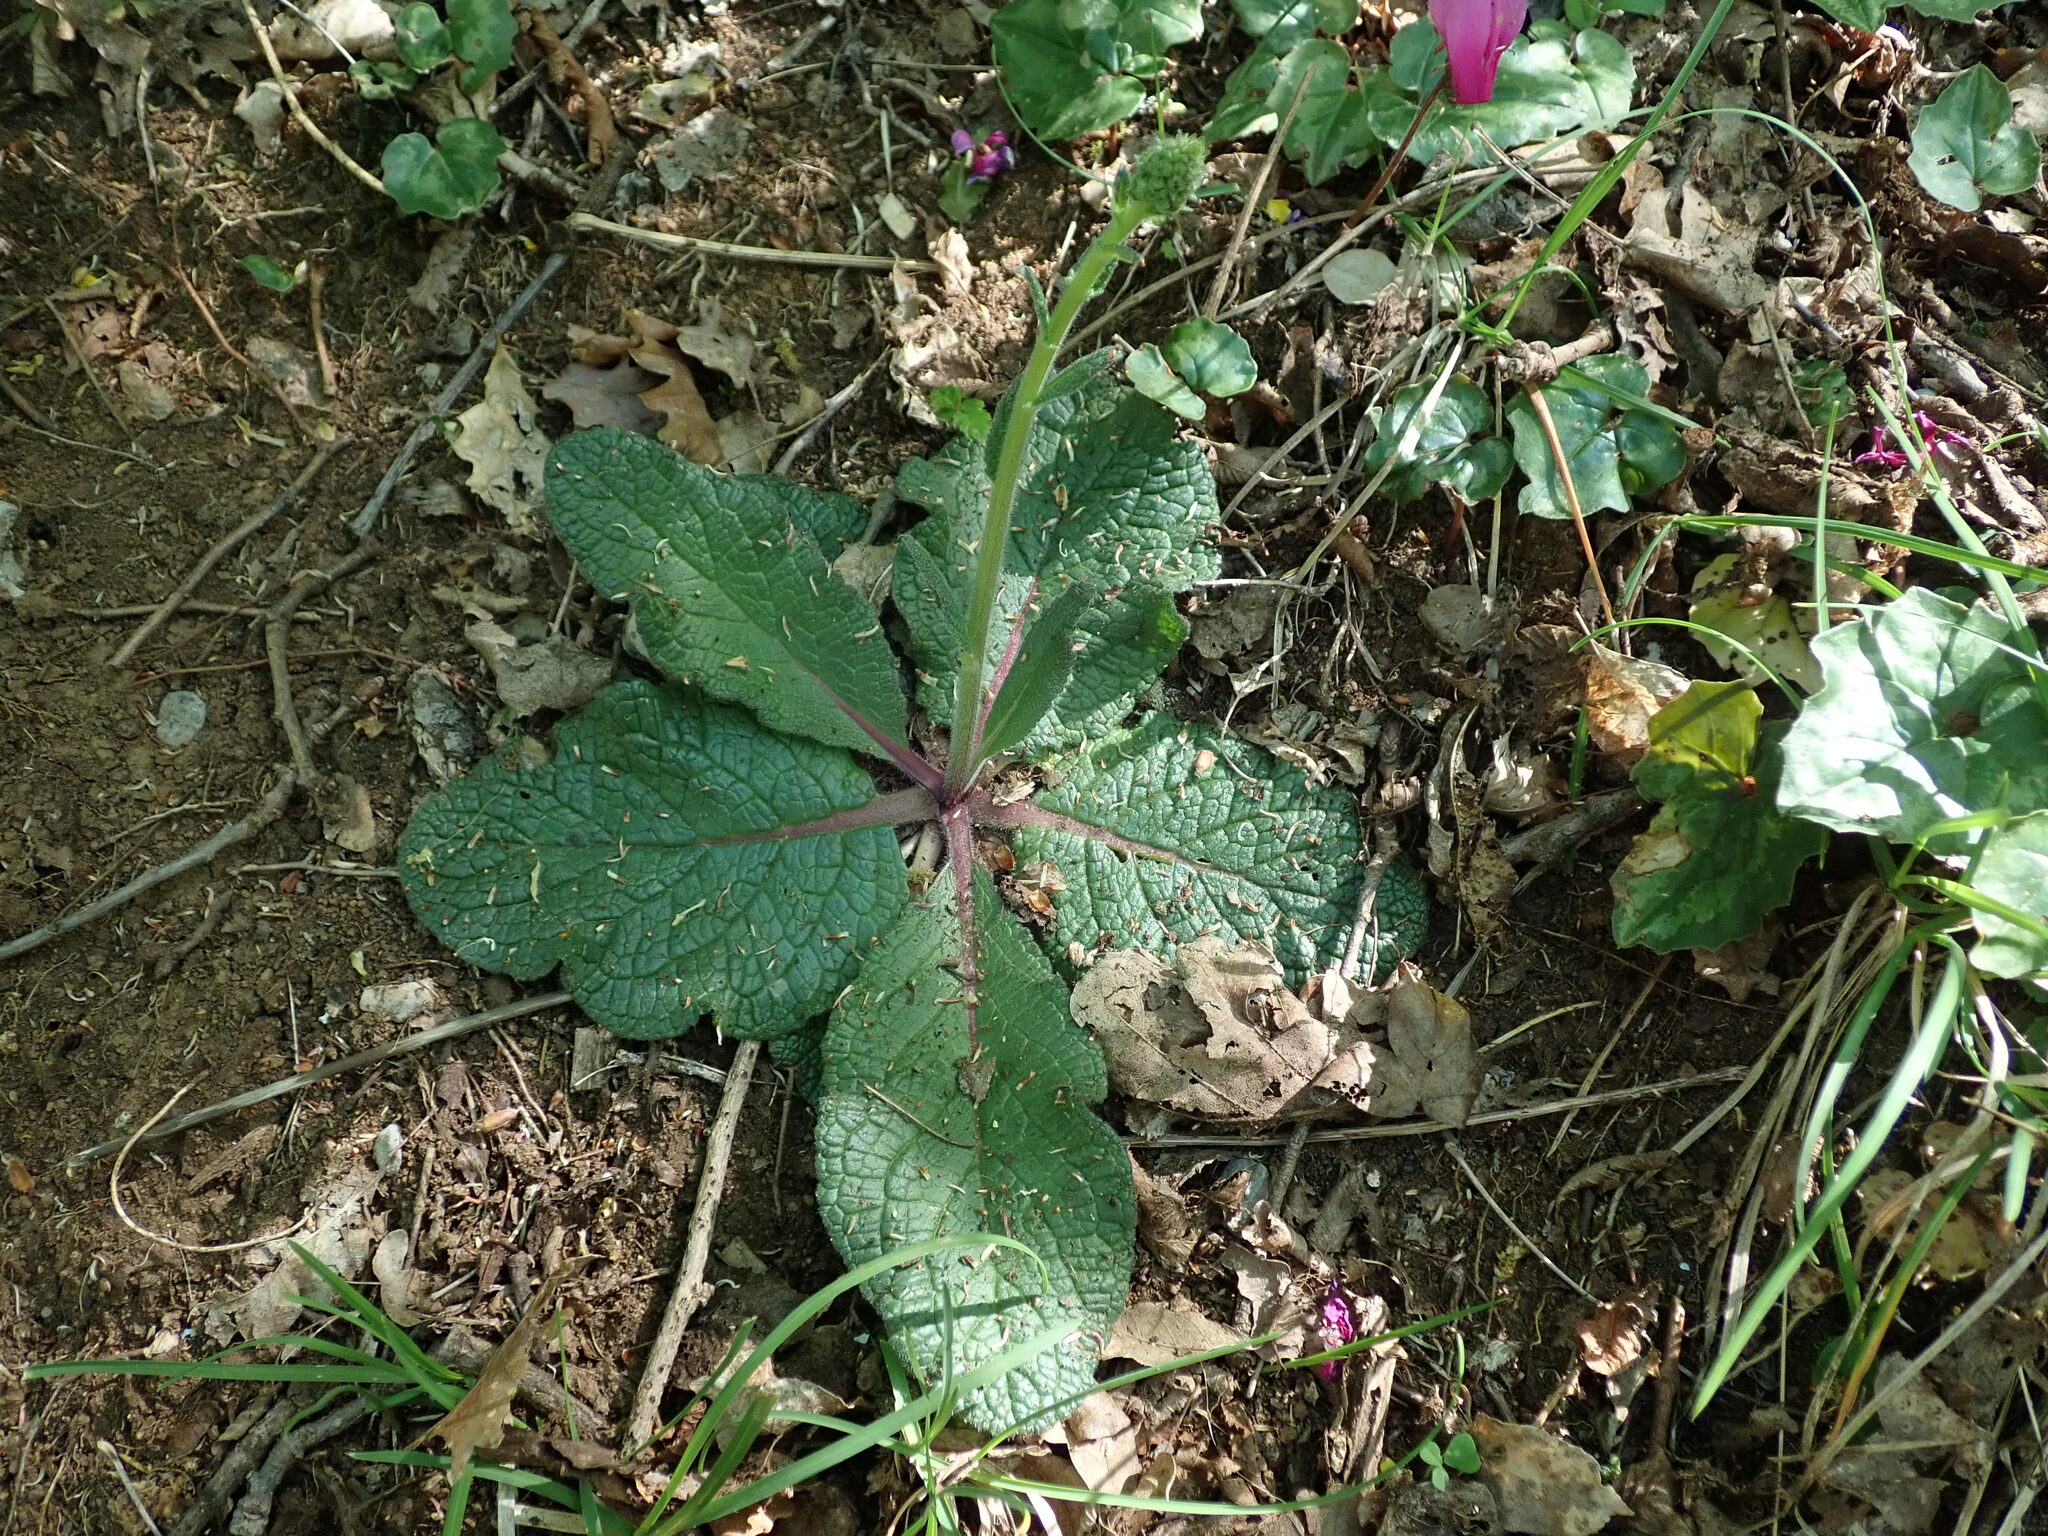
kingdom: Plantae
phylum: Tracheophyta
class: Magnoliopsida
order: Lamiales
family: Scrophulariaceae
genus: Verbascum
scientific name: Verbascum phoeniceum
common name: Purple mullein
